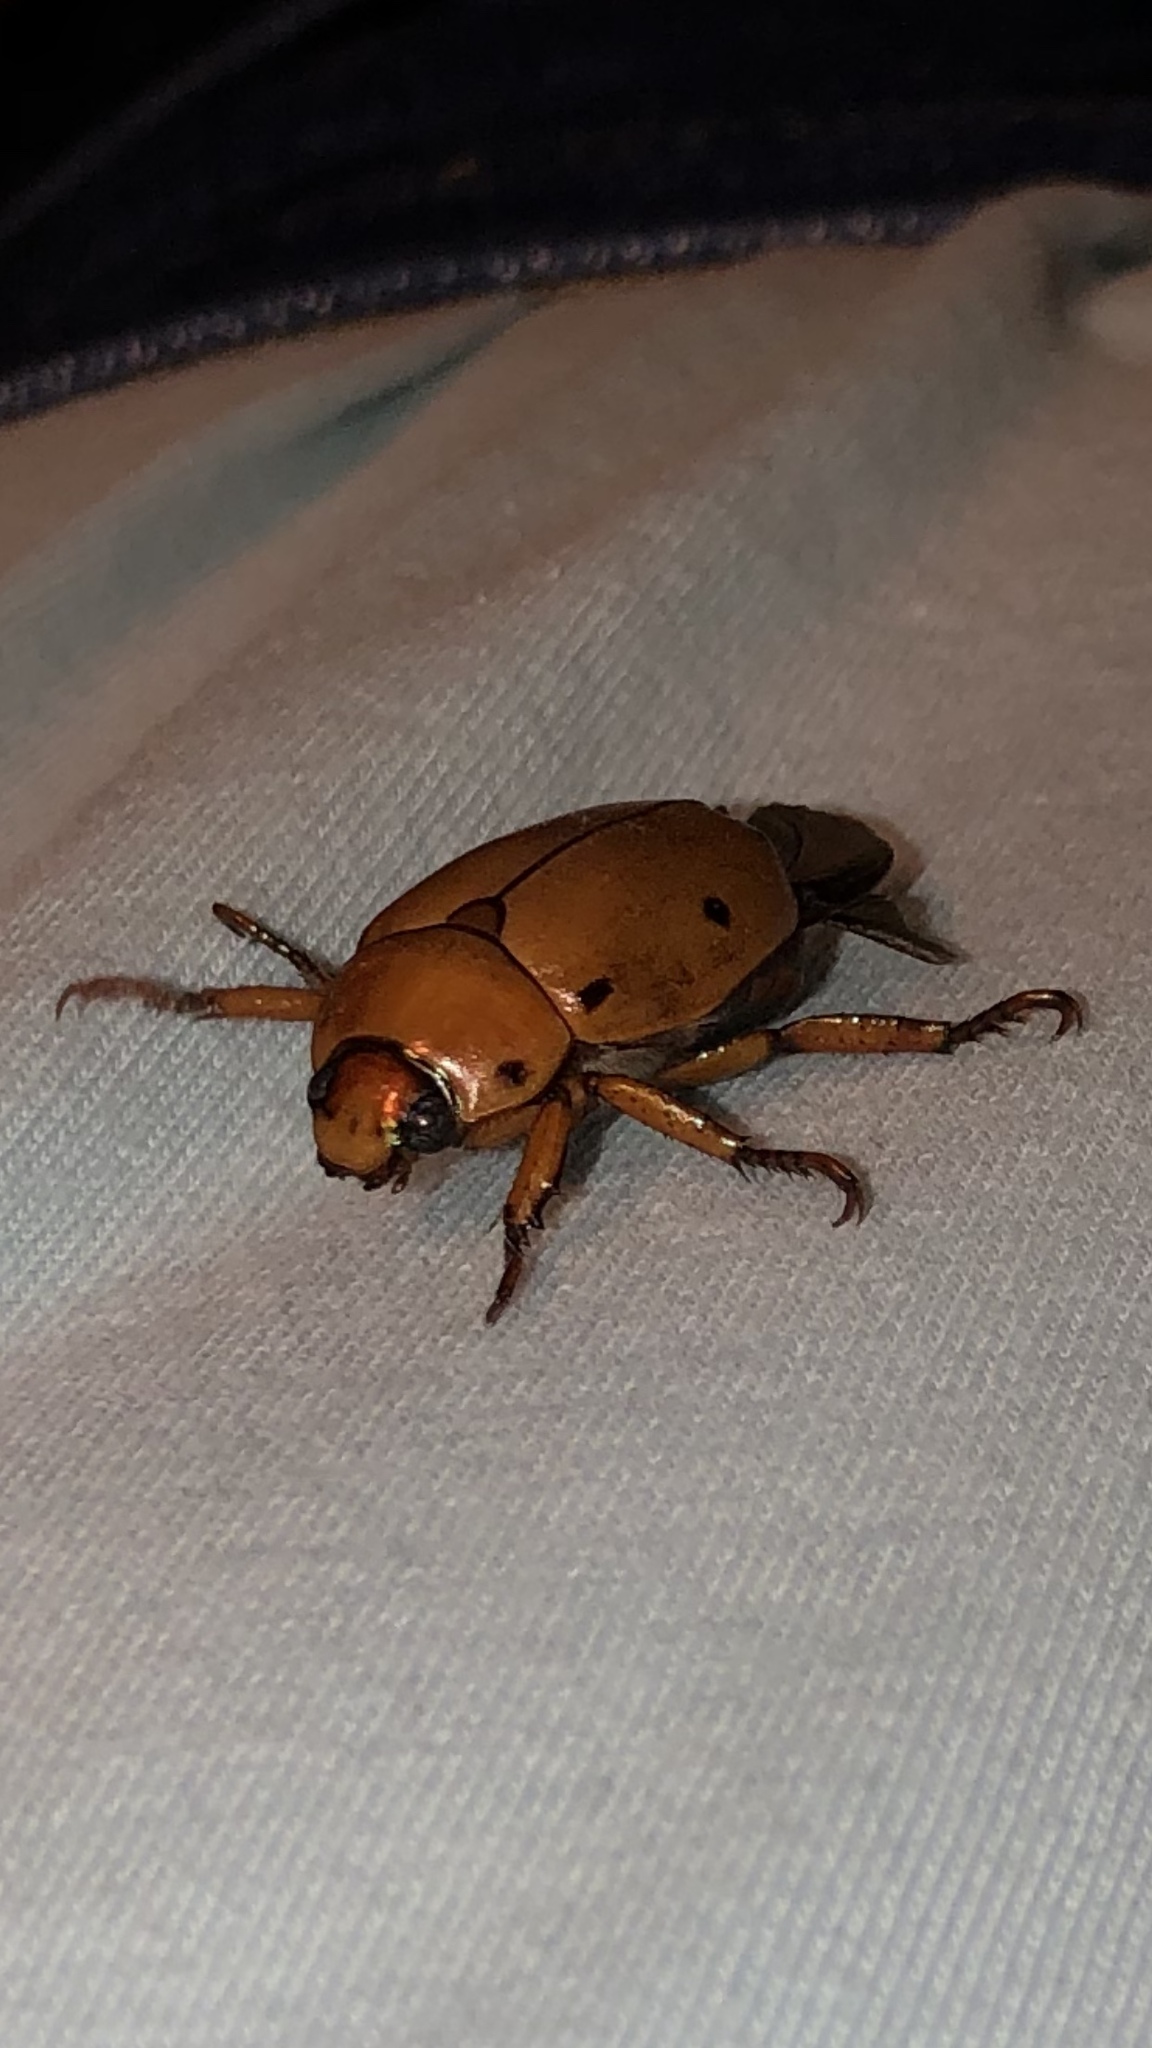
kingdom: Animalia
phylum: Arthropoda
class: Insecta
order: Coleoptera
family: Scarabaeidae
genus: Pelidnota
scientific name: Pelidnota punctata
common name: Grapevine beetle
